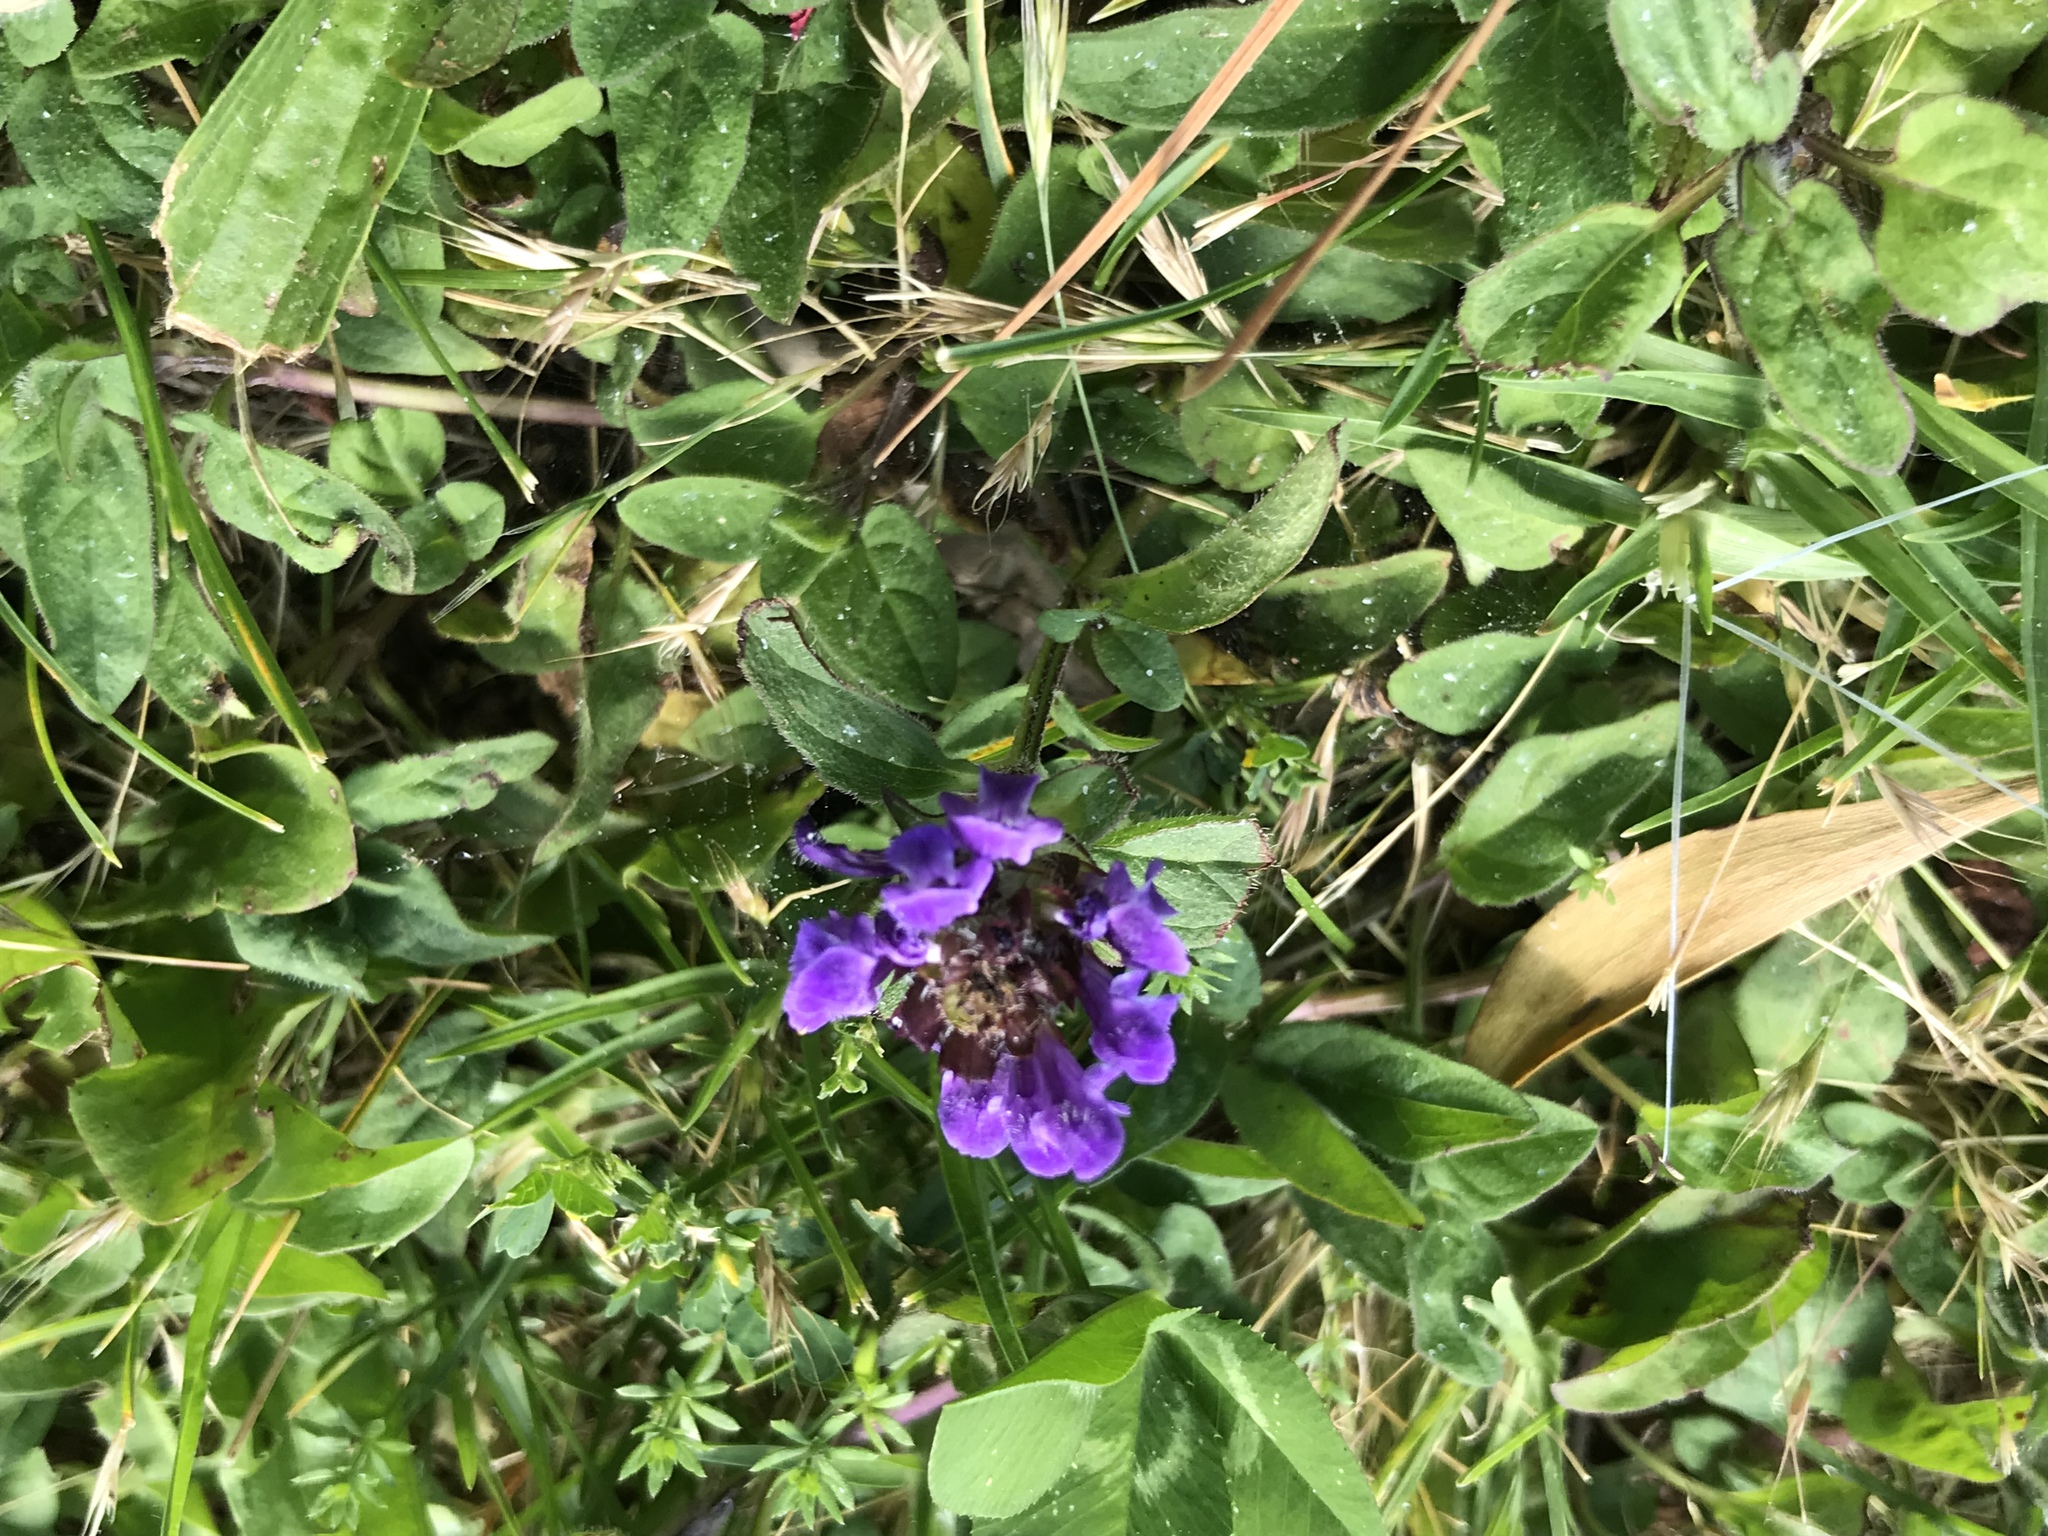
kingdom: Plantae
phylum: Tracheophyta
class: Magnoliopsida
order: Lamiales
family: Lamiaceae
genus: Prunella
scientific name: Prunella vulgaris
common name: Heal-all
